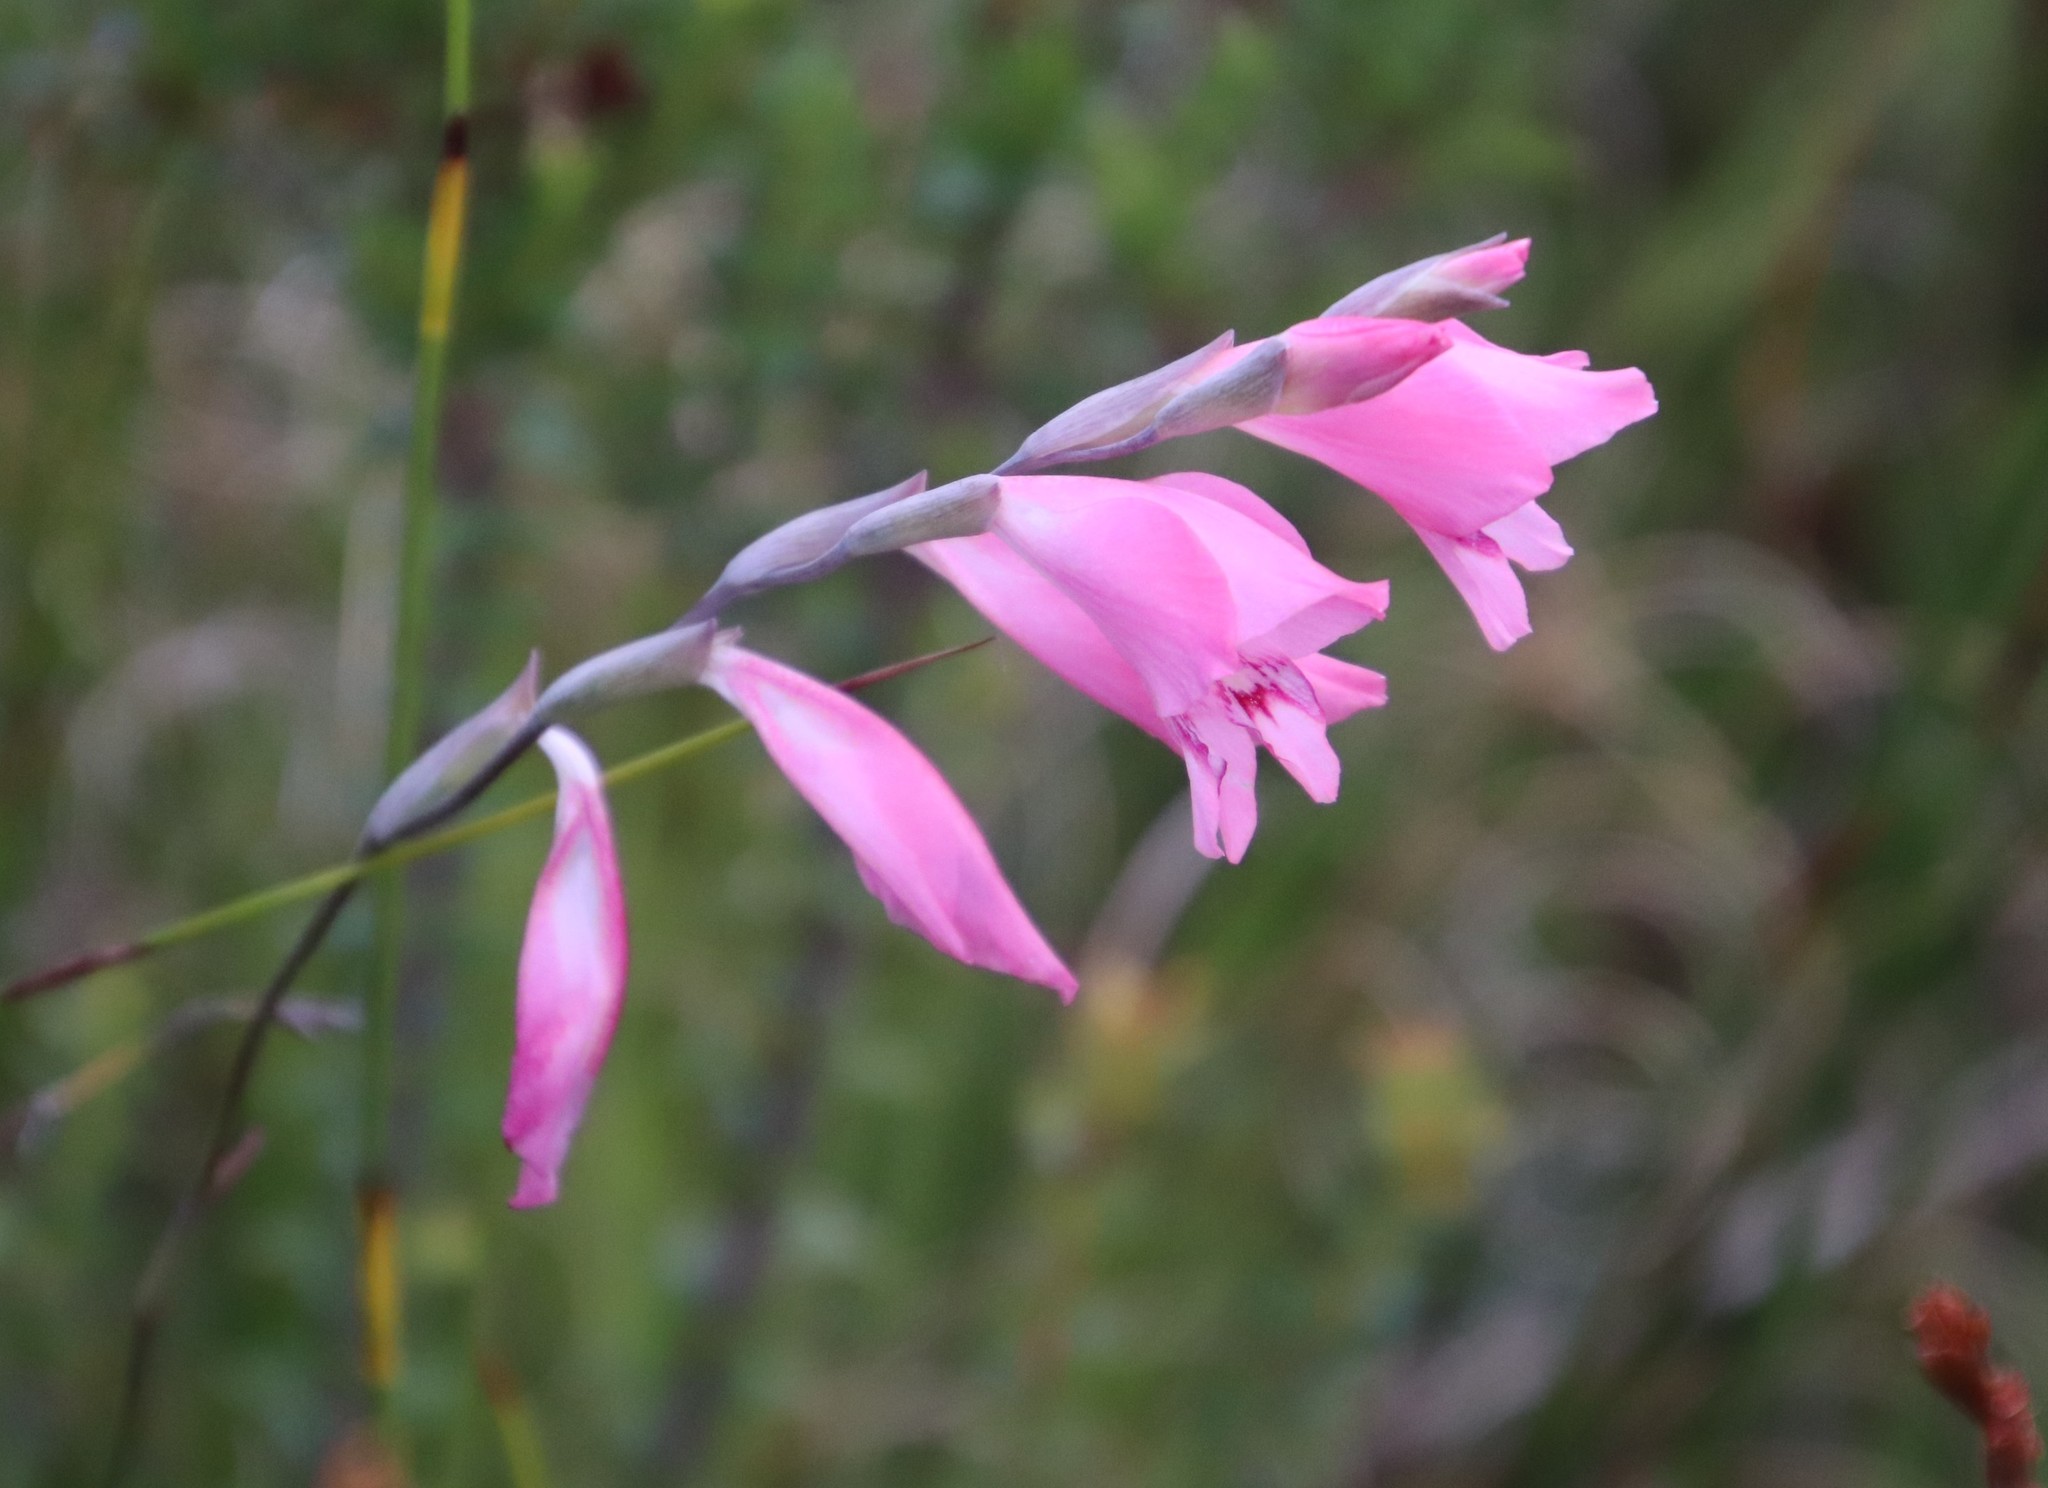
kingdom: Plantae
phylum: Tracheophyta
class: Liliopsida
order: Asparagales
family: Iridaceae
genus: Gladiolus
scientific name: Gladiolus brevifolius
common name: March pypie
